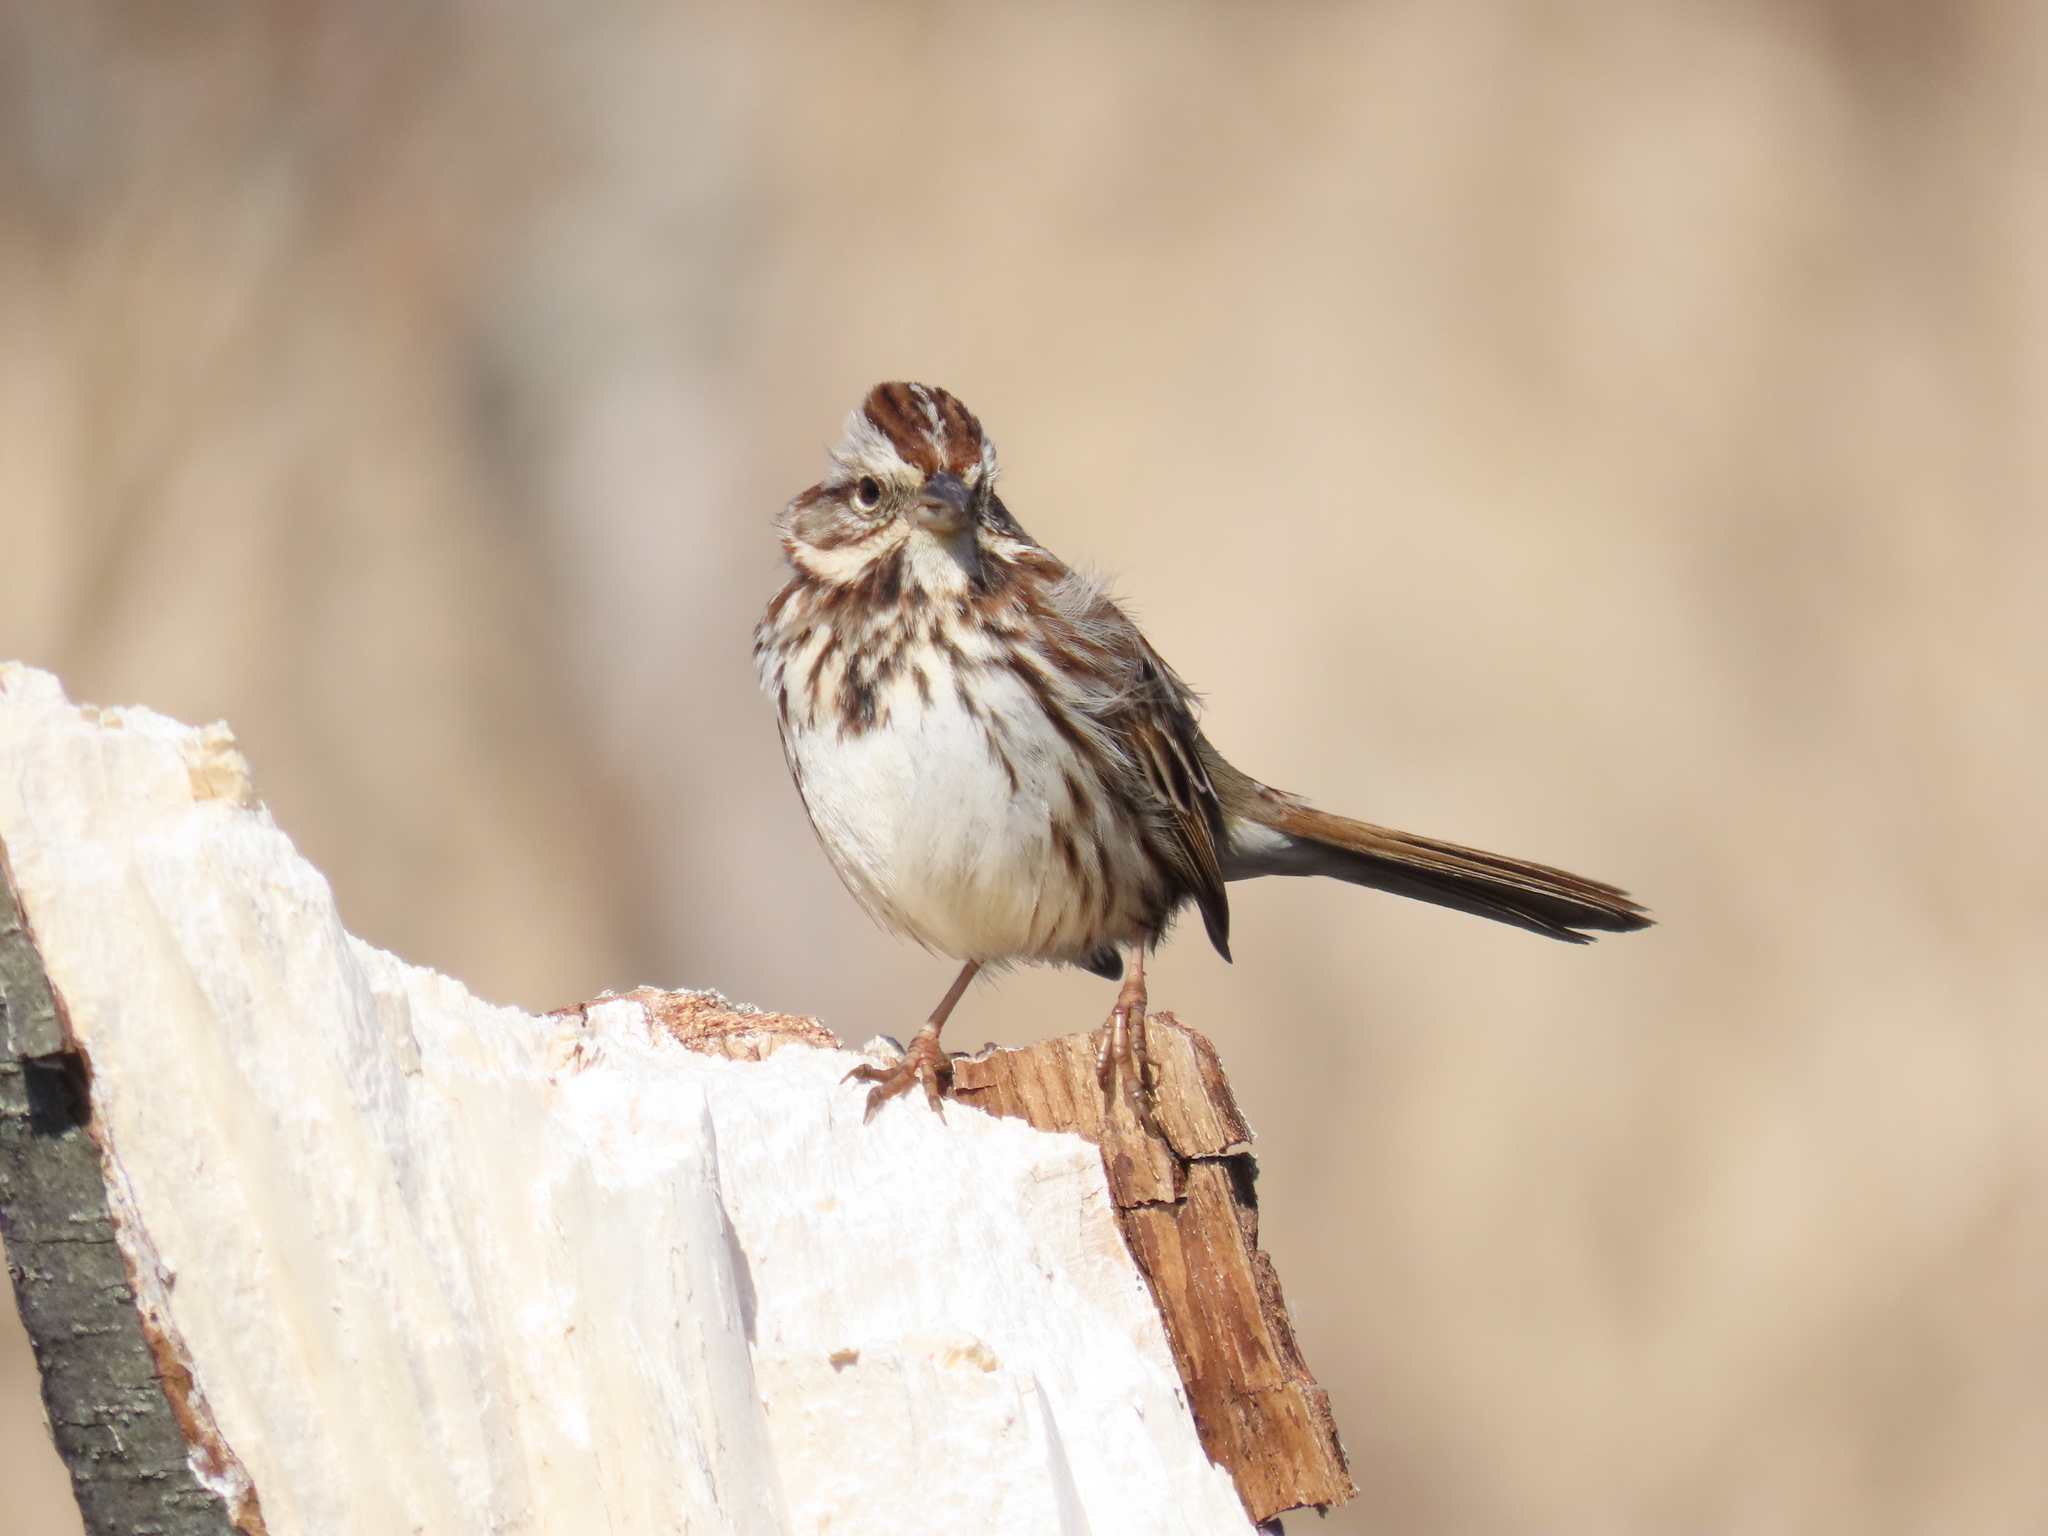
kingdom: Animalia
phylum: Chordata
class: Aves
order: Passeriformes
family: Passerellidae
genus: Melospiza
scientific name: Melospiza melodia
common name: Song sparrow
